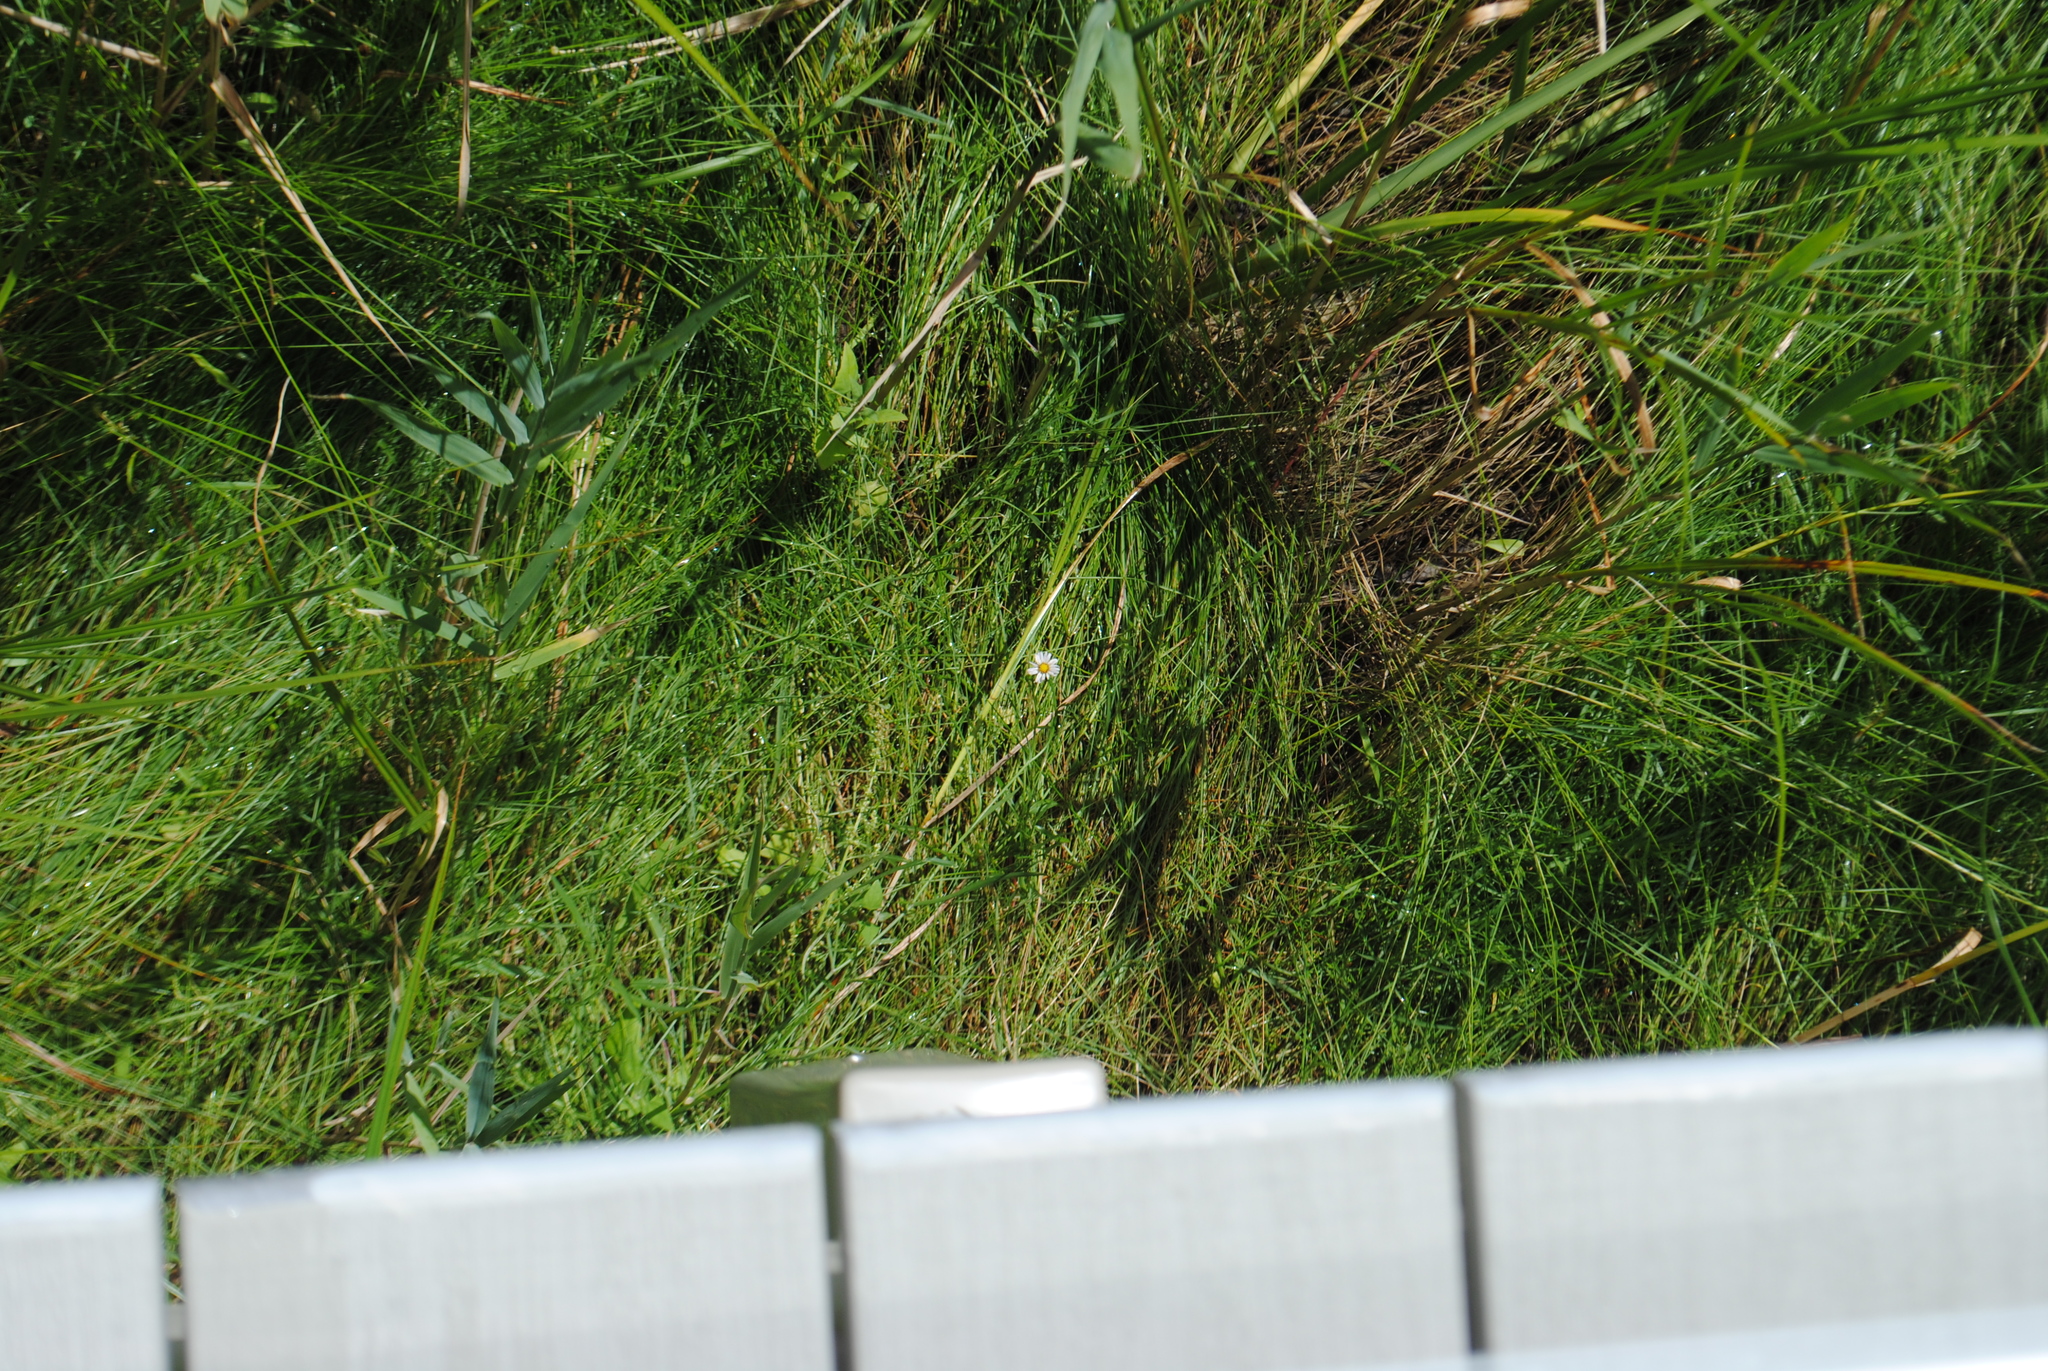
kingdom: Plantae
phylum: Tracheophyta
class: Magnoliopsida
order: Asterales
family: Asteraceae
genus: Symphyotrichum
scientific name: Symphyotrichum tenuifolium
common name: Perennial salt-marsh aster
